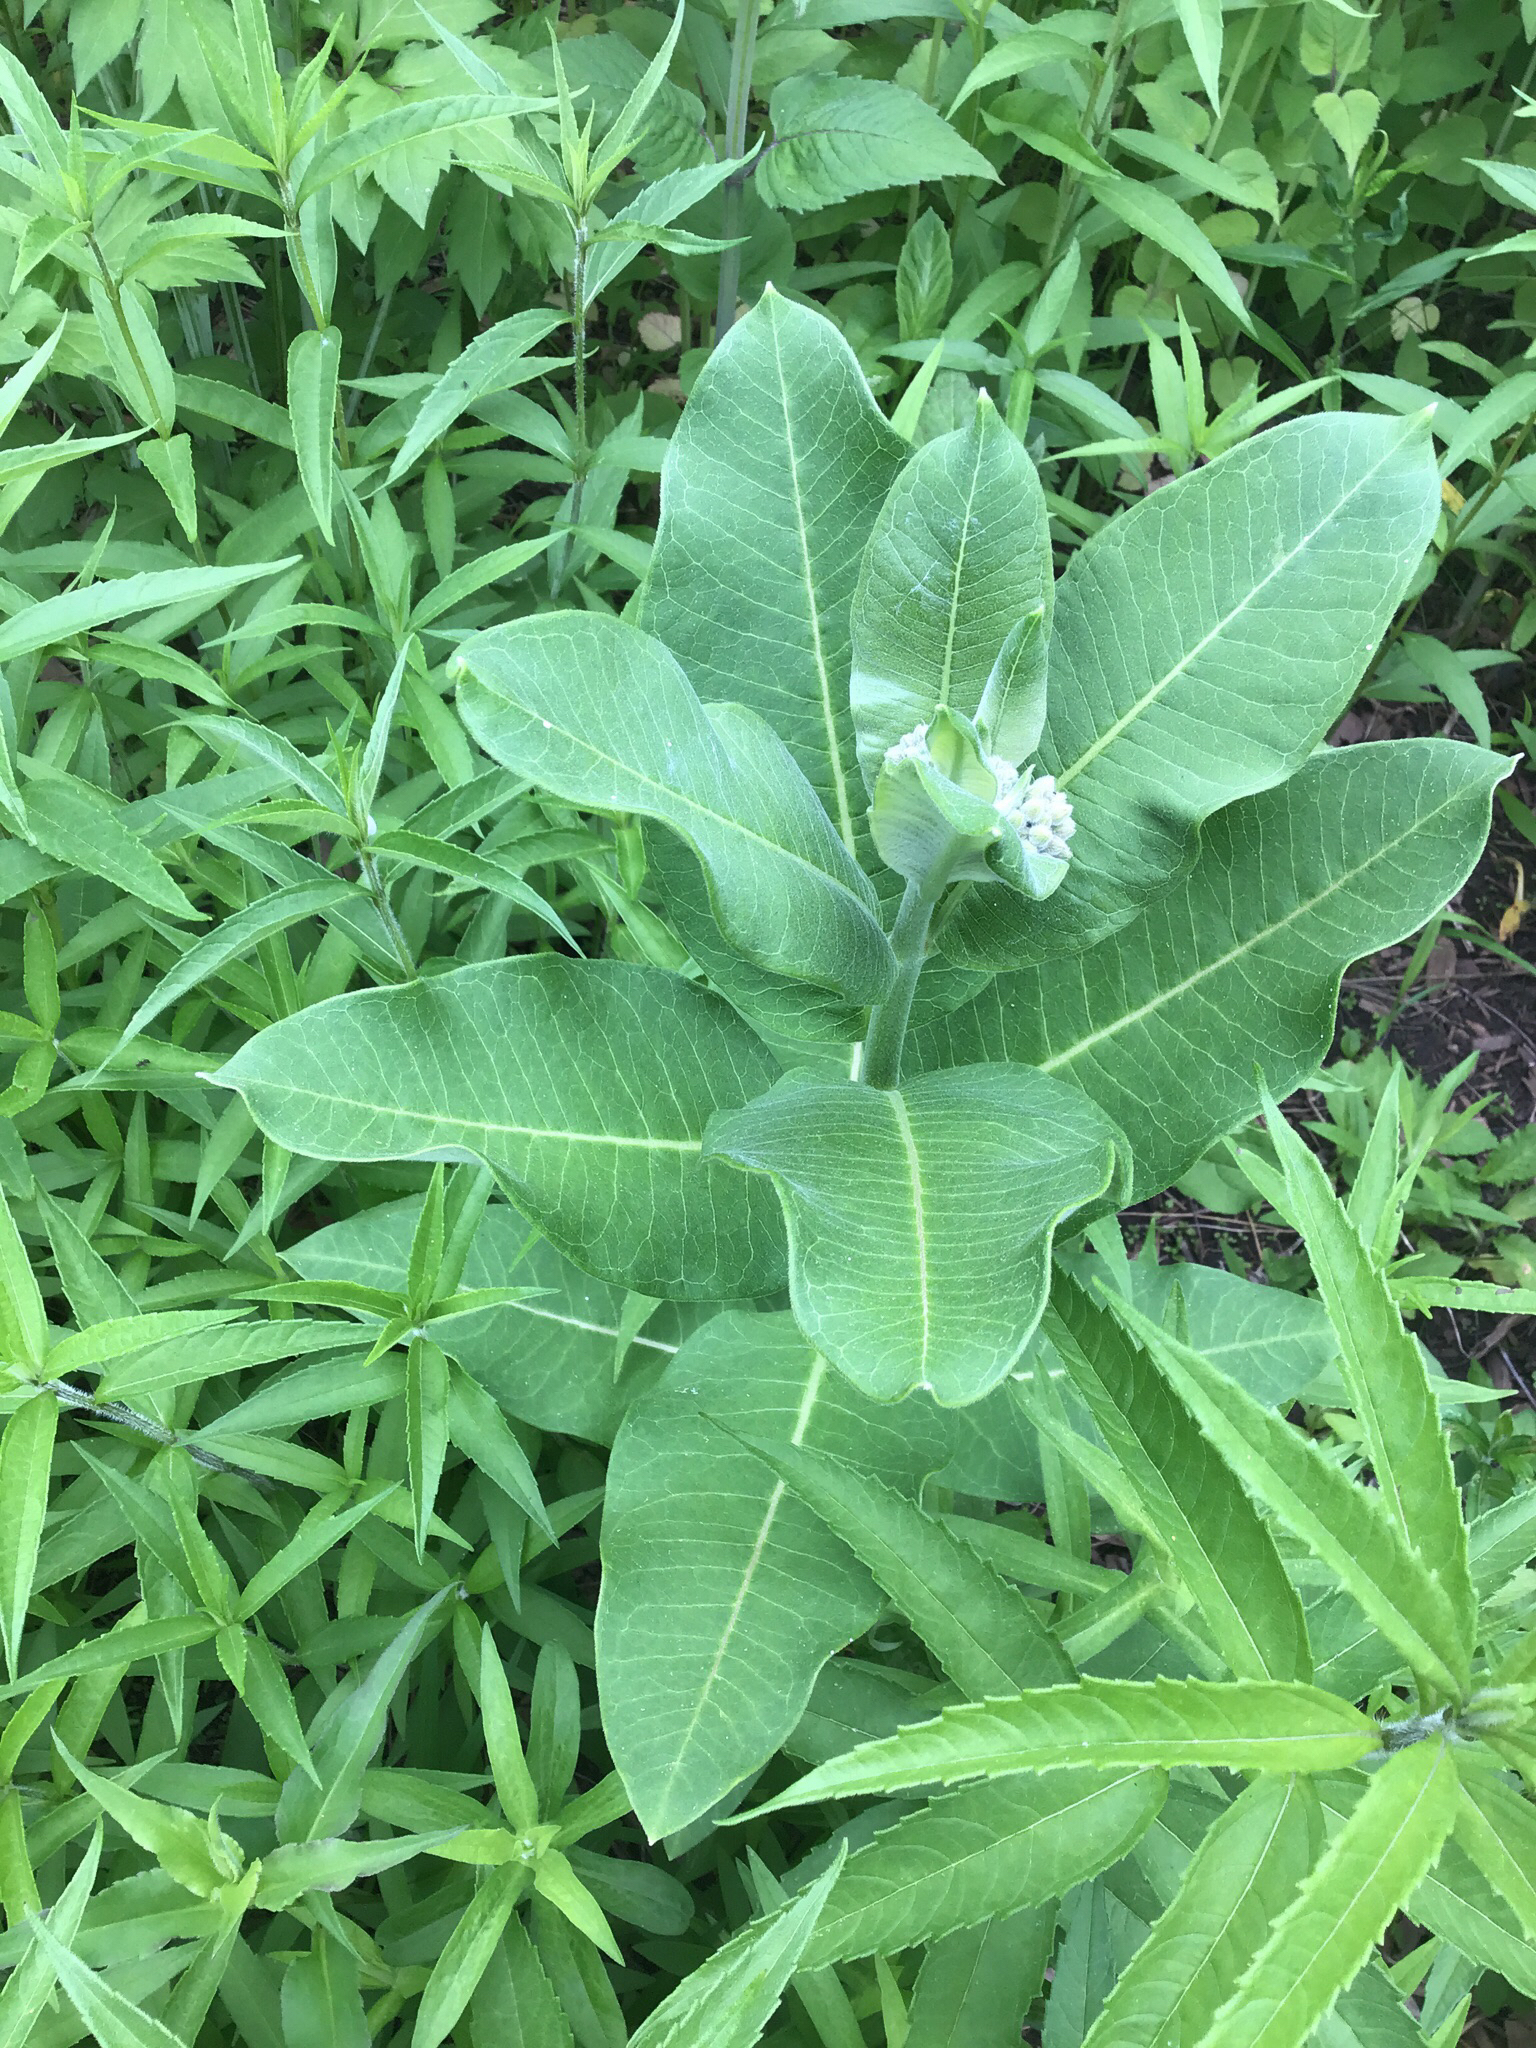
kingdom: Plantae
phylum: Tracheophyta
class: Magnoliopsida
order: Gentianales
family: Apocynaceae
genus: Asclepias
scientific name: Asclepias syriaca
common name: Common milkweed
